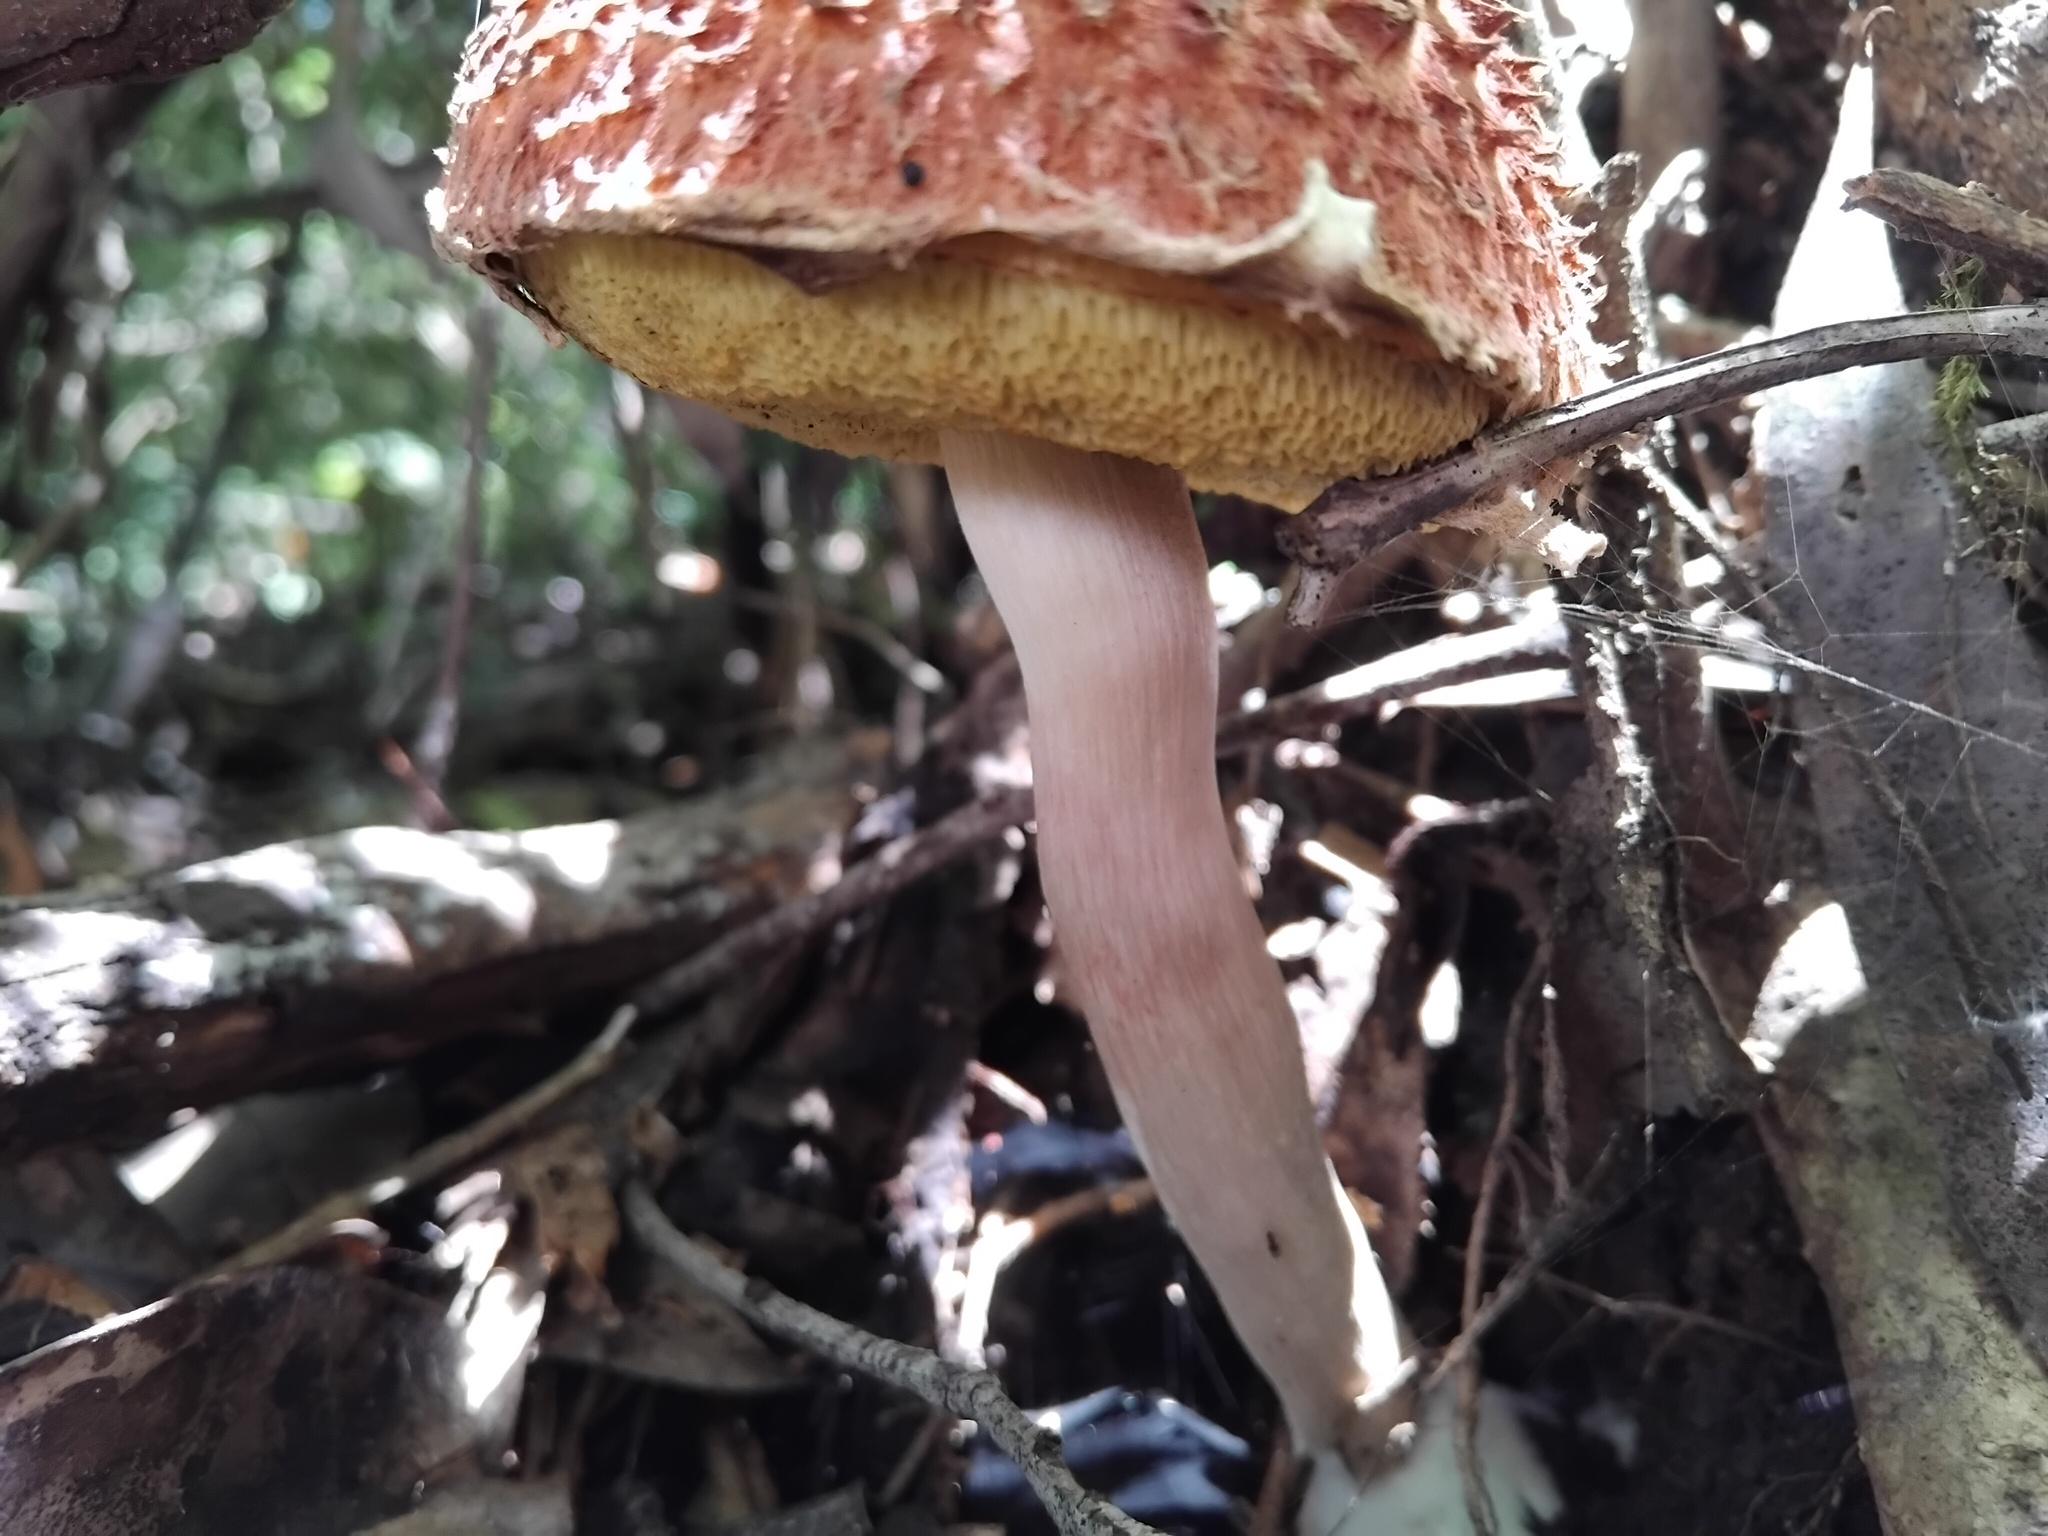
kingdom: Fungi
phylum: Basidiomycota
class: Agaricomycetes
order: Boletales
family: Boletaceae
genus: Boletellus
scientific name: Boletellus deceptivus
